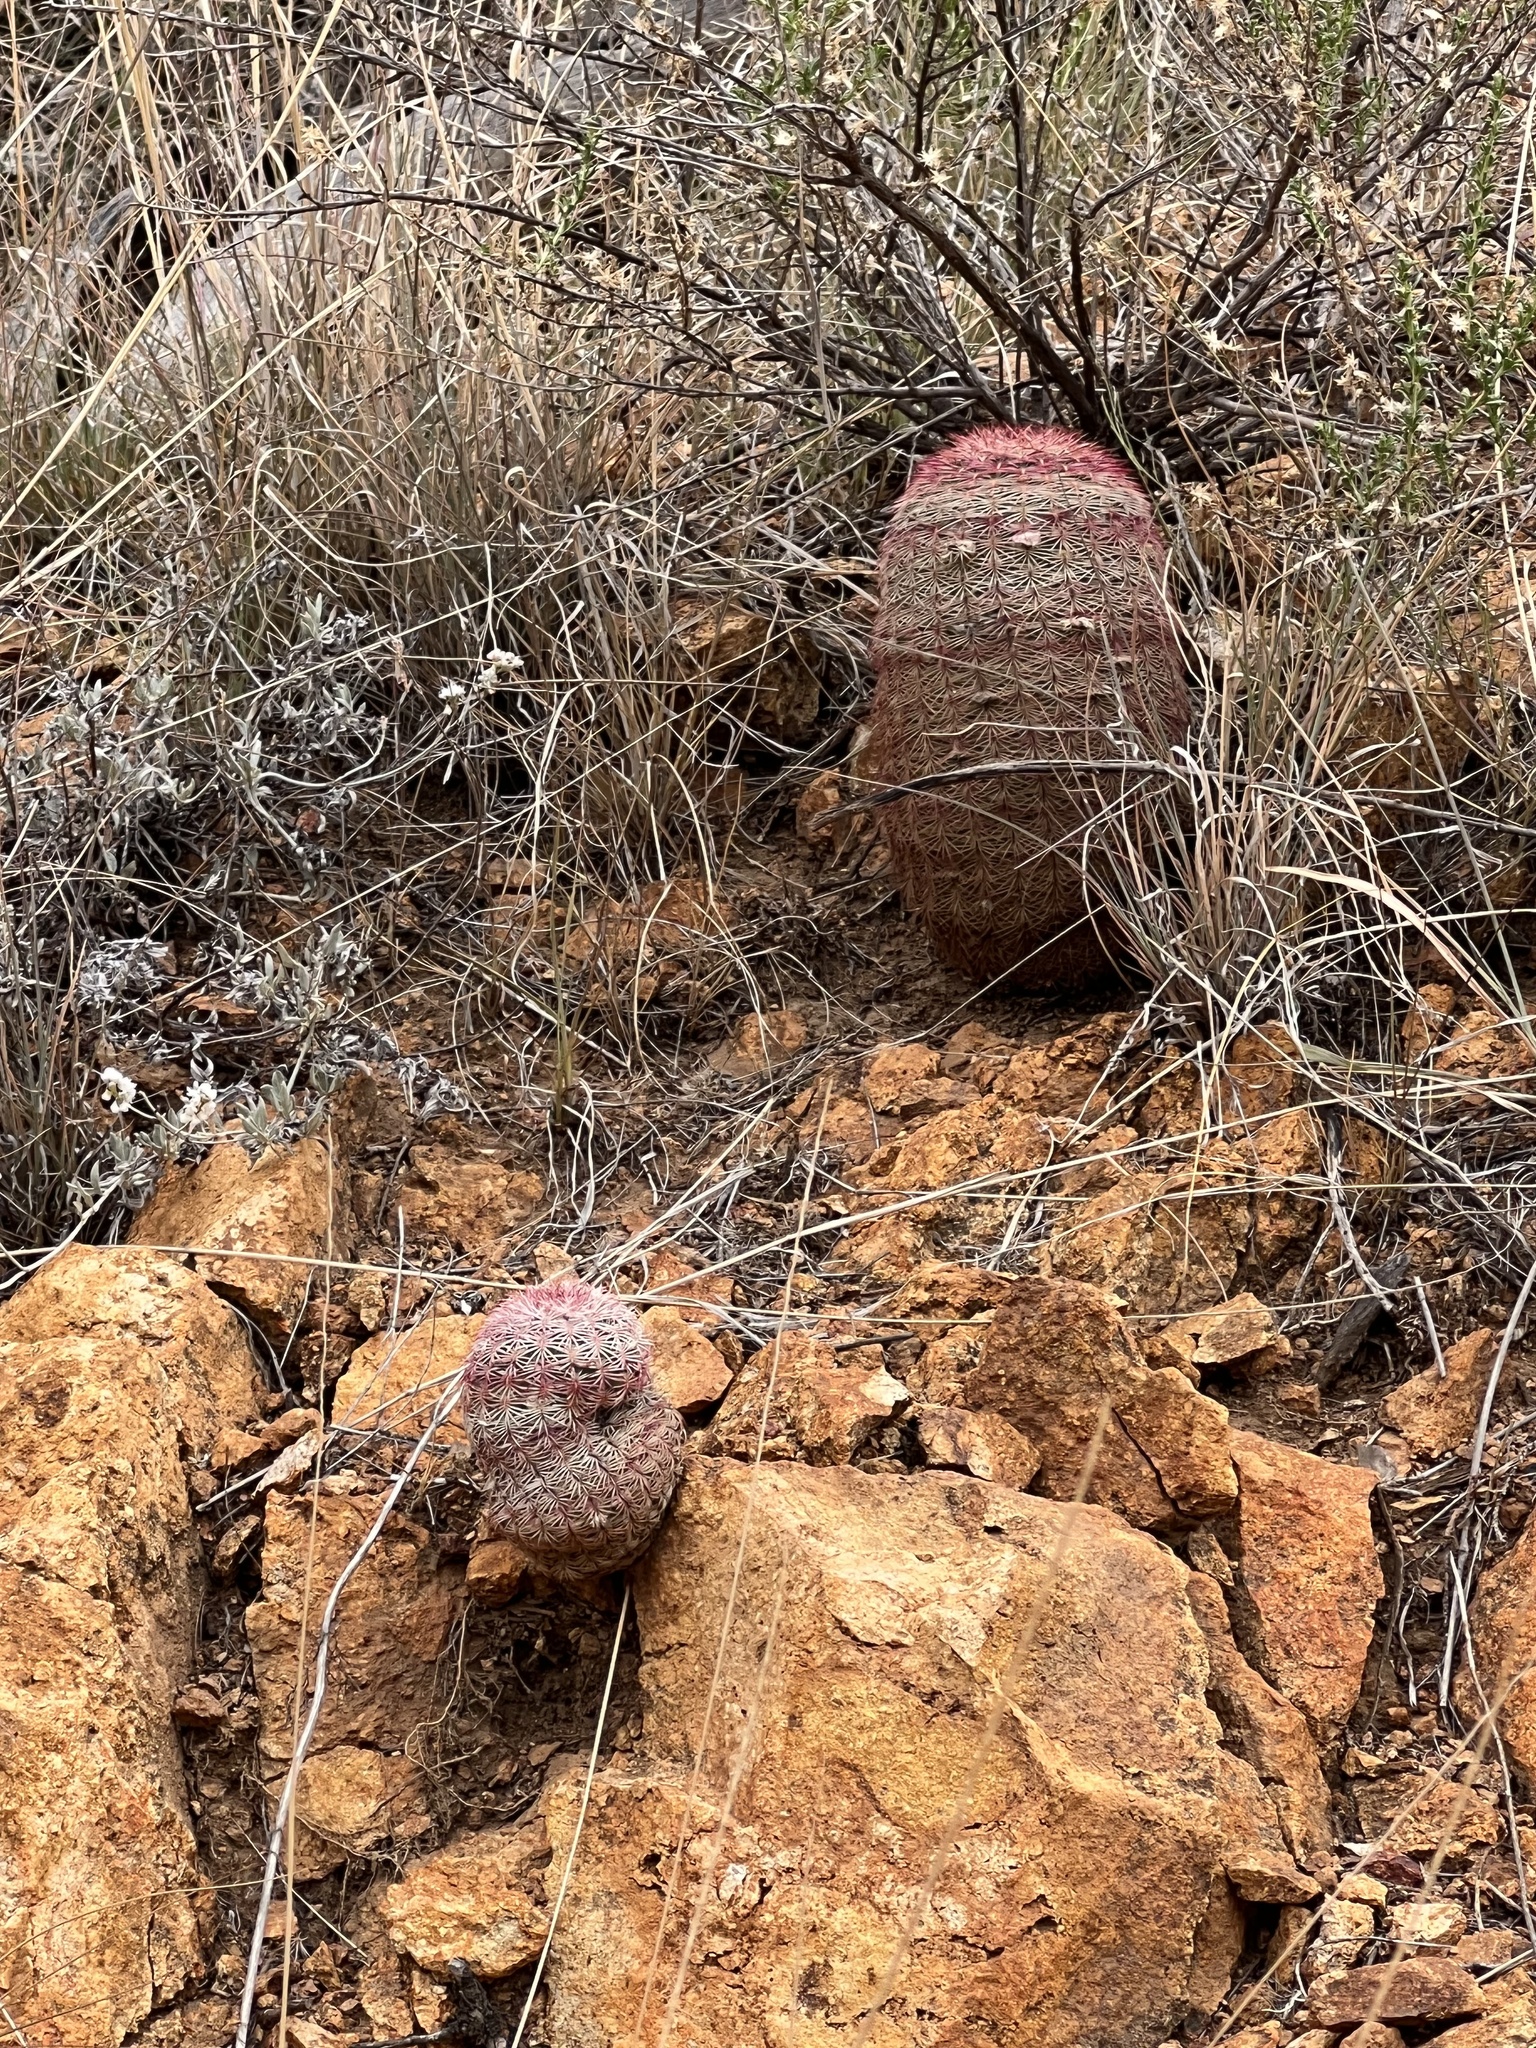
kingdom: Plantae
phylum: Tracheophyta
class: Magnoliopsida
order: Caryophyllales
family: Cactaceae
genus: Echinocereus
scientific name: Echinocereus rigidissimus
